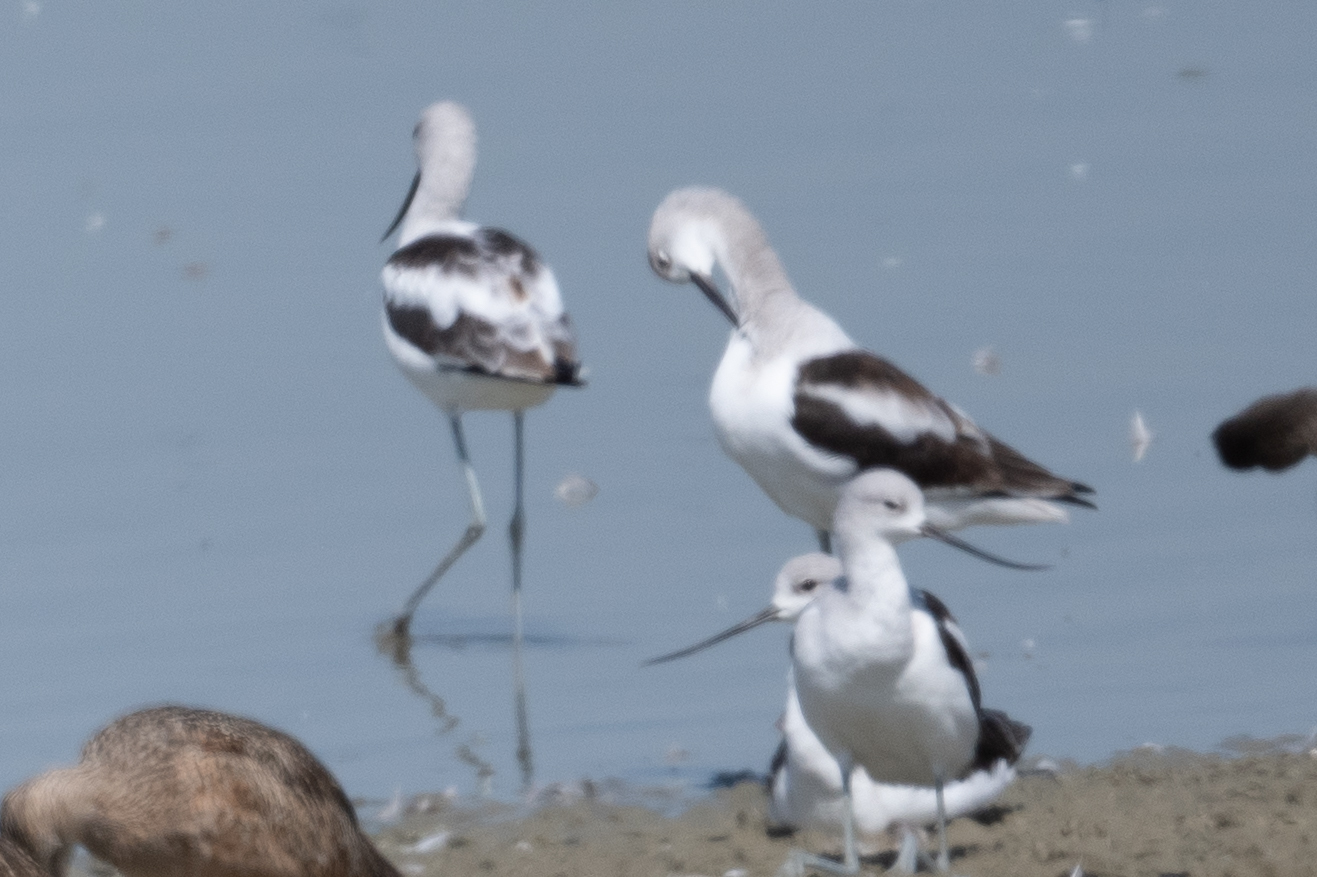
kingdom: Animalia
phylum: Chordata
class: Aves
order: Charadriiformes
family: Recurvirostridae
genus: Recurvirostra
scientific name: Recurvirostra americana
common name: American avocet
